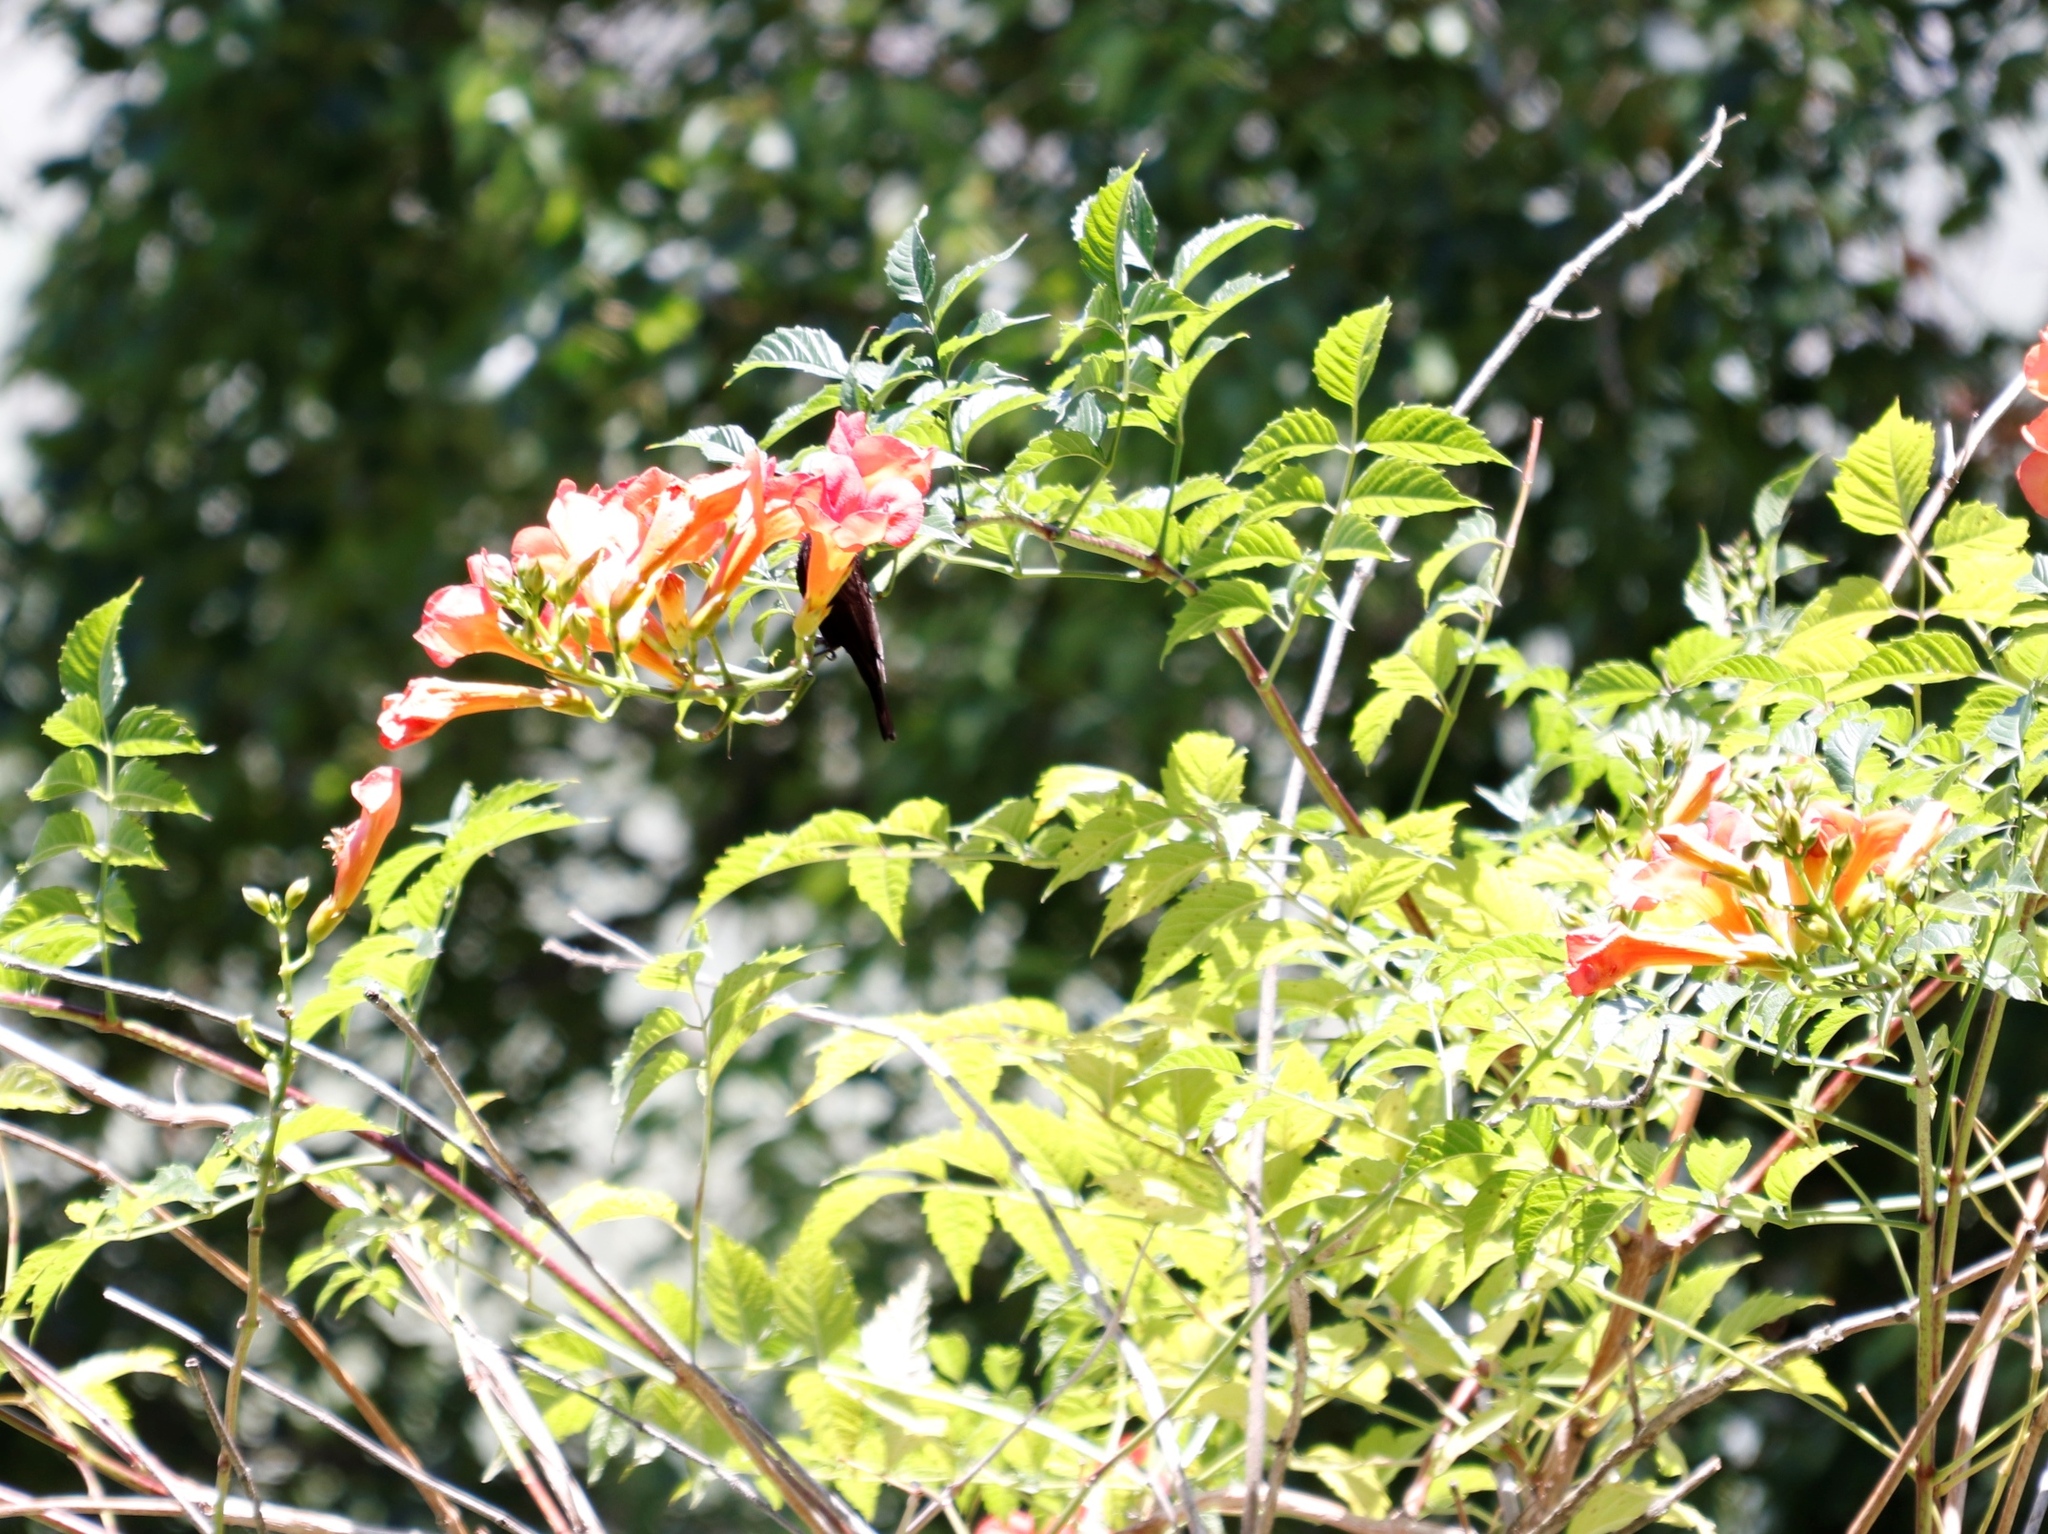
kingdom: Animalia
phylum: Chordata
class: Aves
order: Passeriformes
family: Nectariniidae
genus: Chalcomitra
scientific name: Chalcomitra amethystina
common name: Amethyst sunbird
